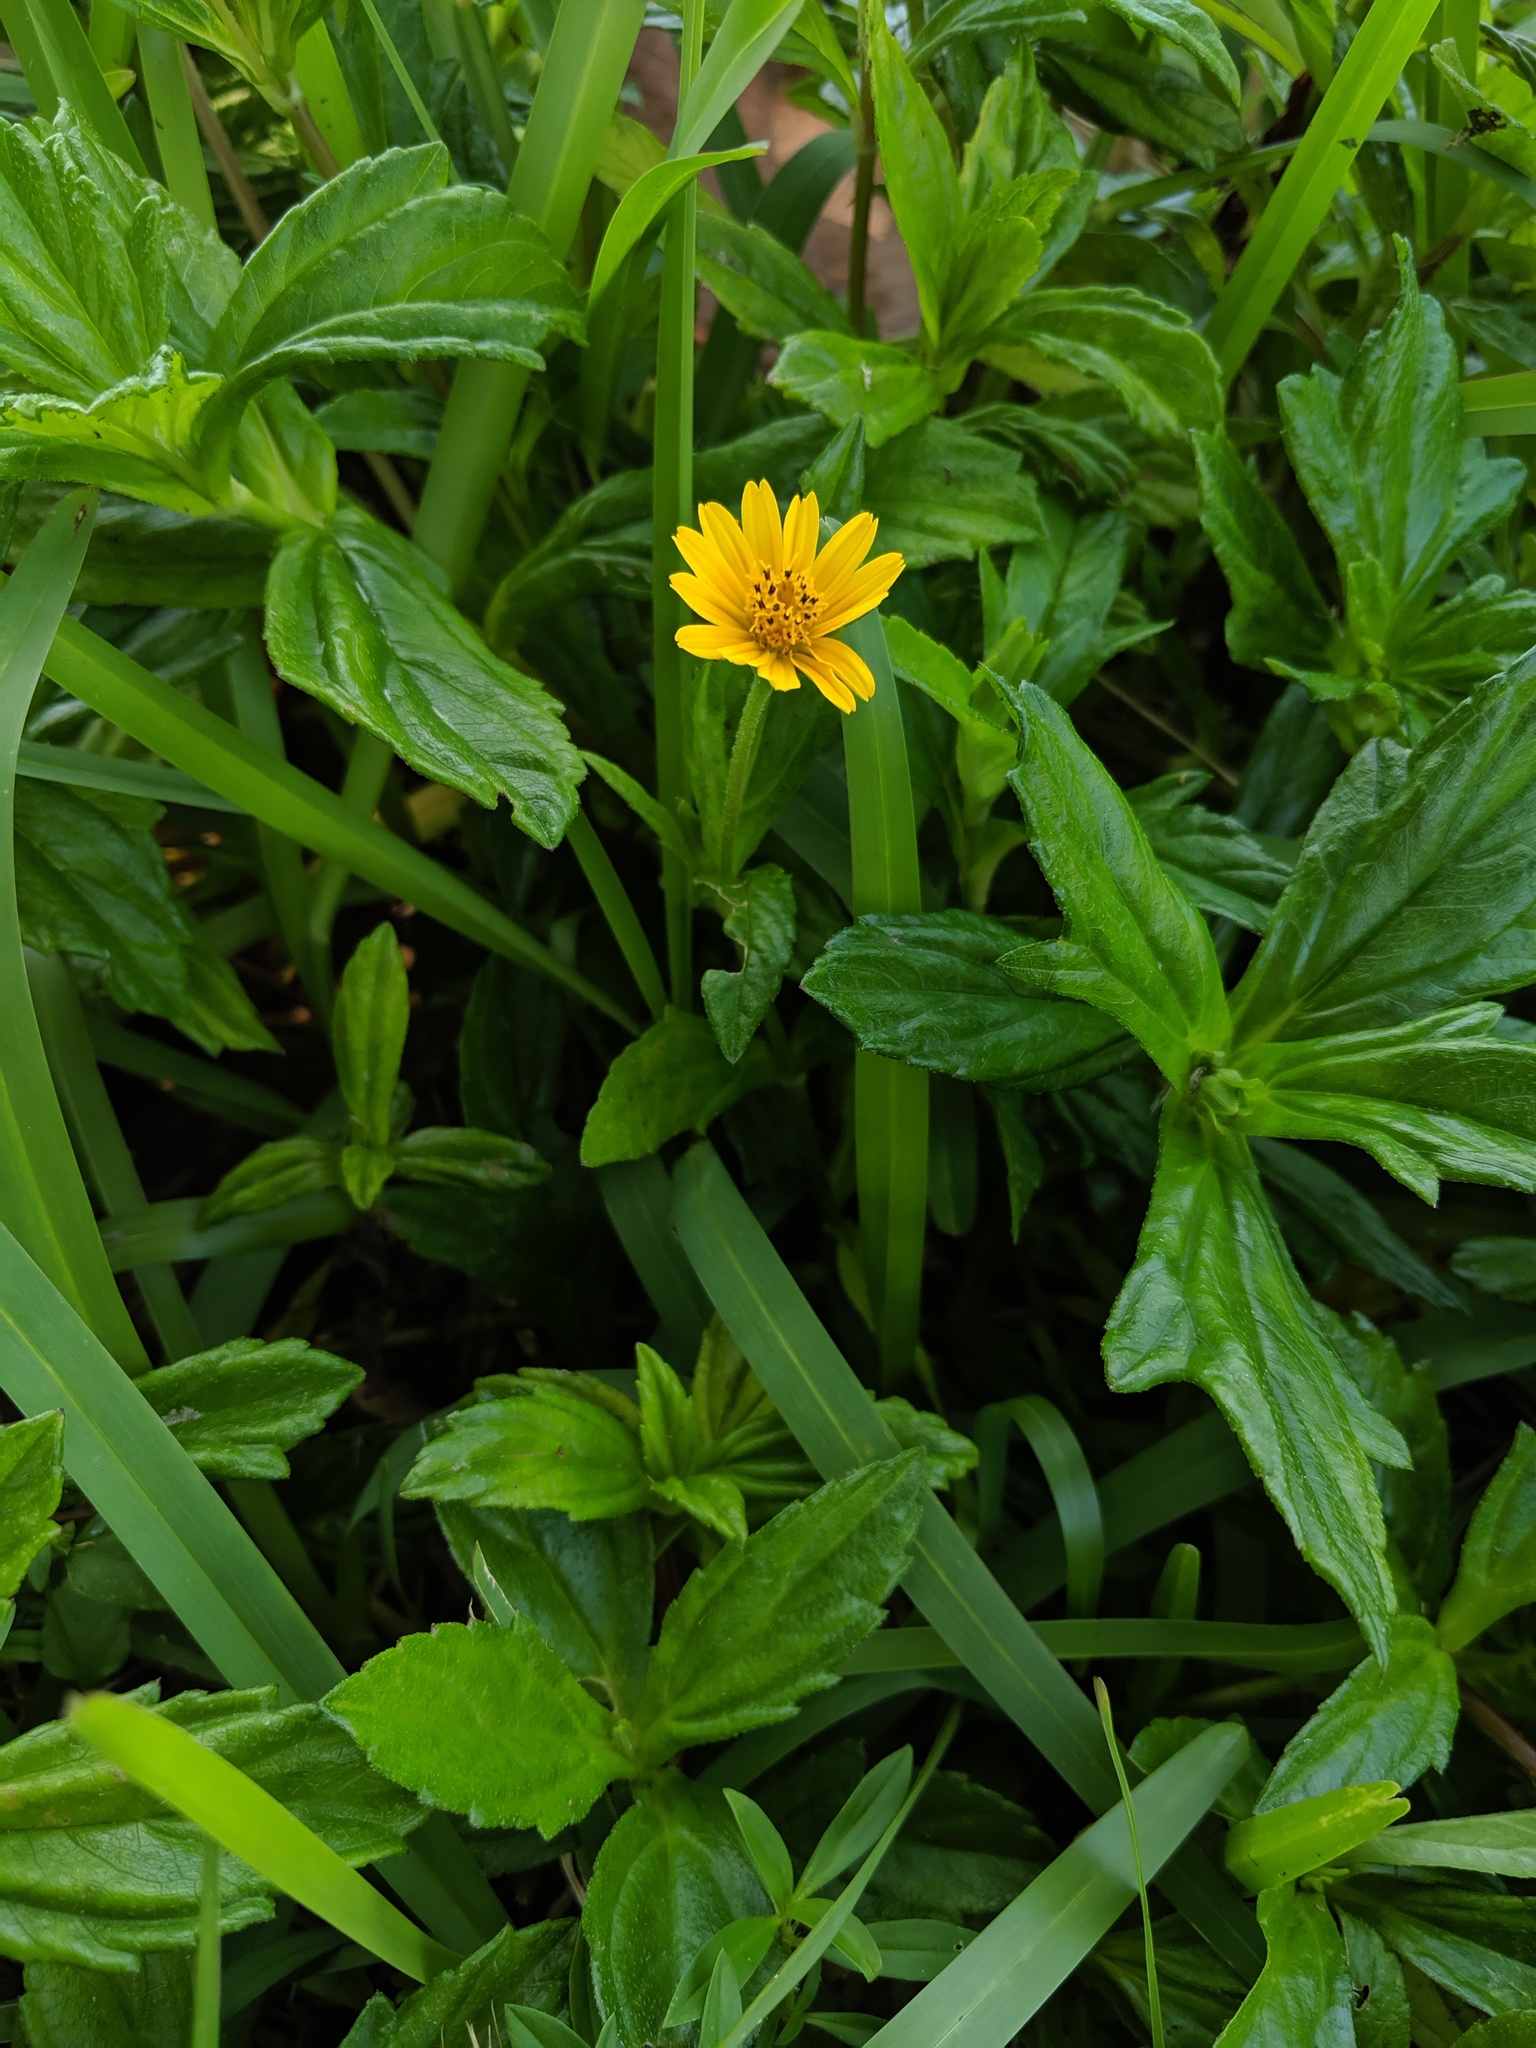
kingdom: Plantae
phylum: Tracheophyta
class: Magnoliopsida
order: Asterales
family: Asteraceae
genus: Sphagneticola
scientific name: Sphagneticola trilobata
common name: Bay biscayne creeping-oxeye
